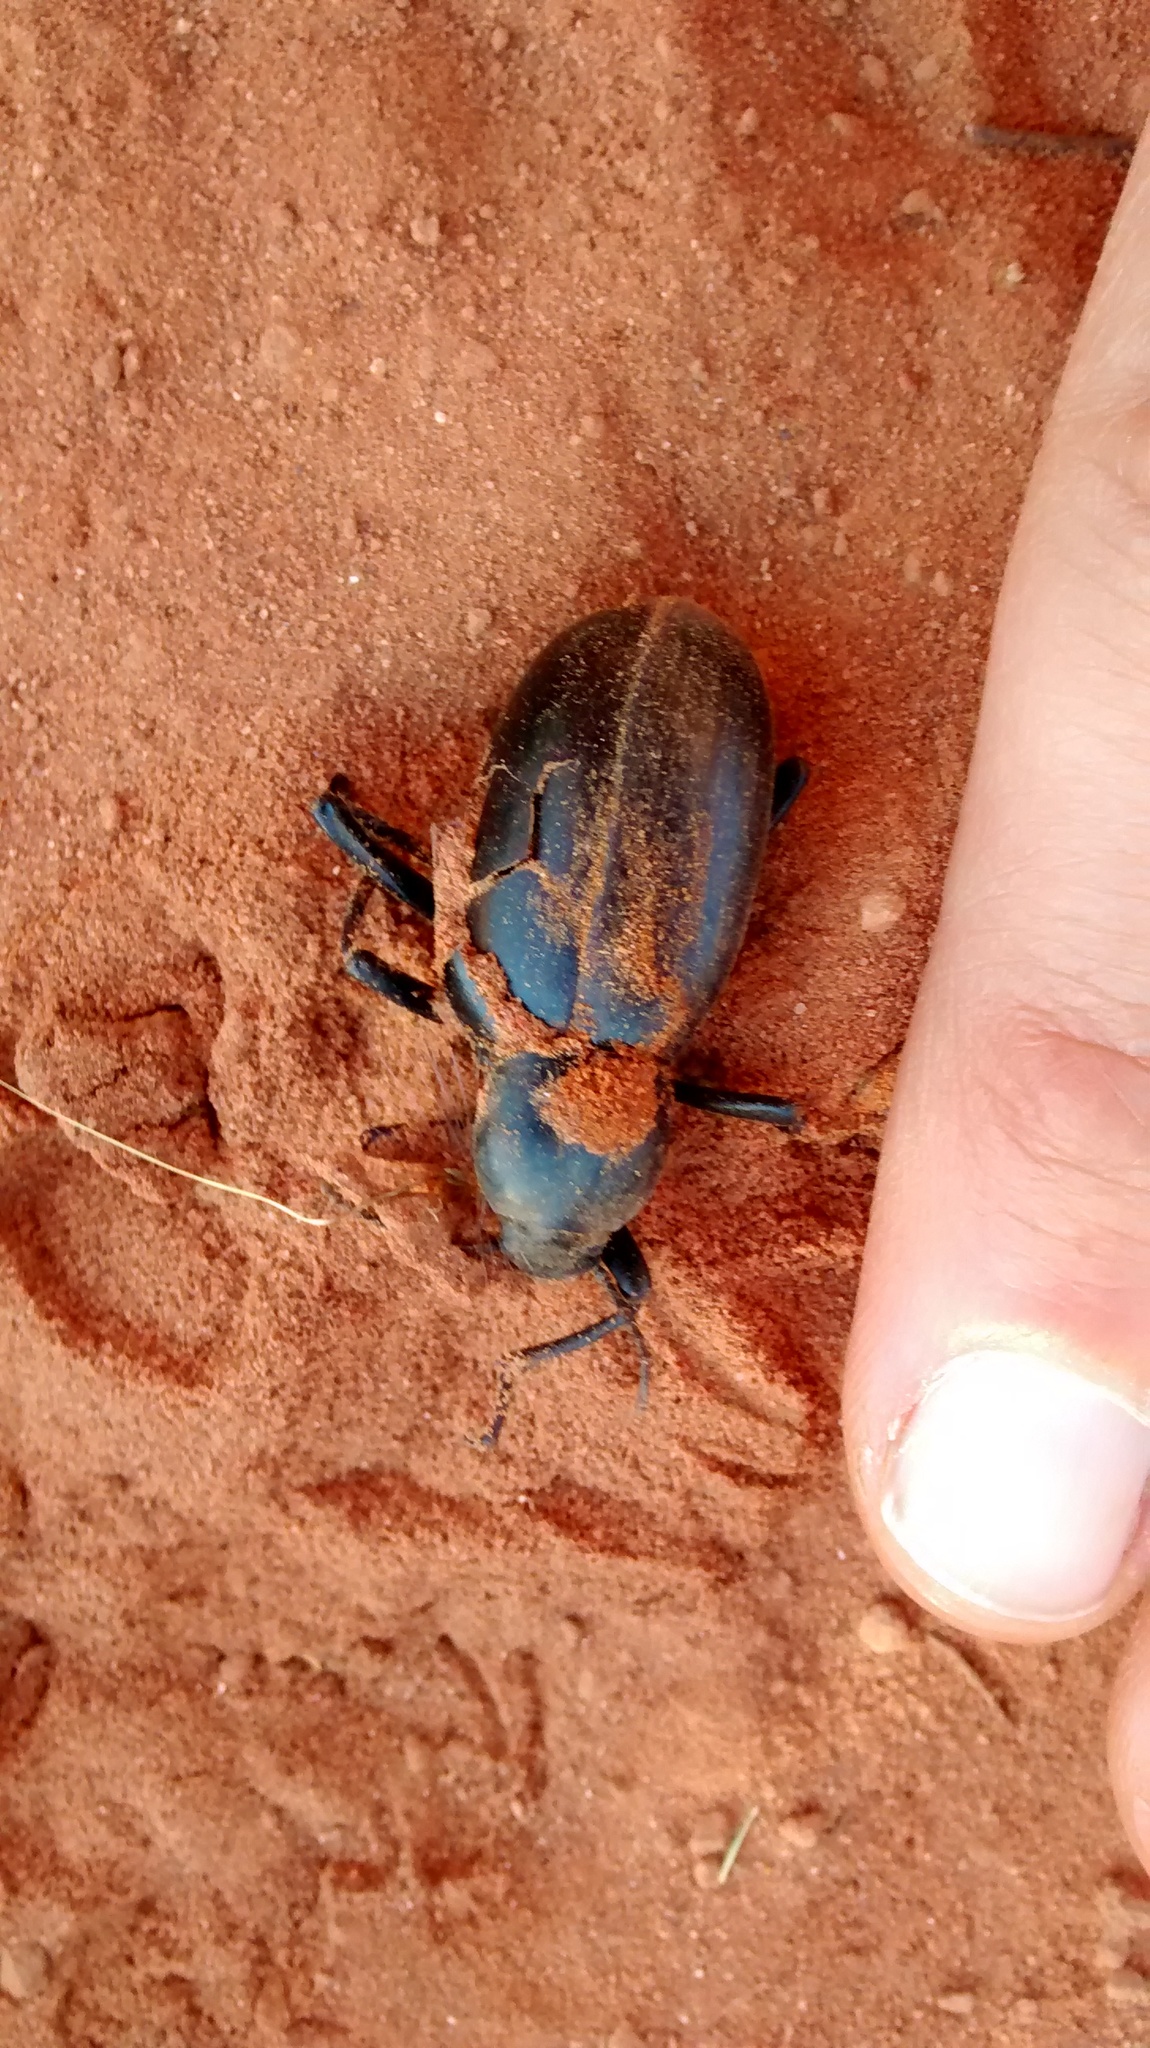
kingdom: Animalia
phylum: Arthropoda
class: Insecta
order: Coleoptera
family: Tenebrionidae
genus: Eleodes
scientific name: Eleodes longicollis
